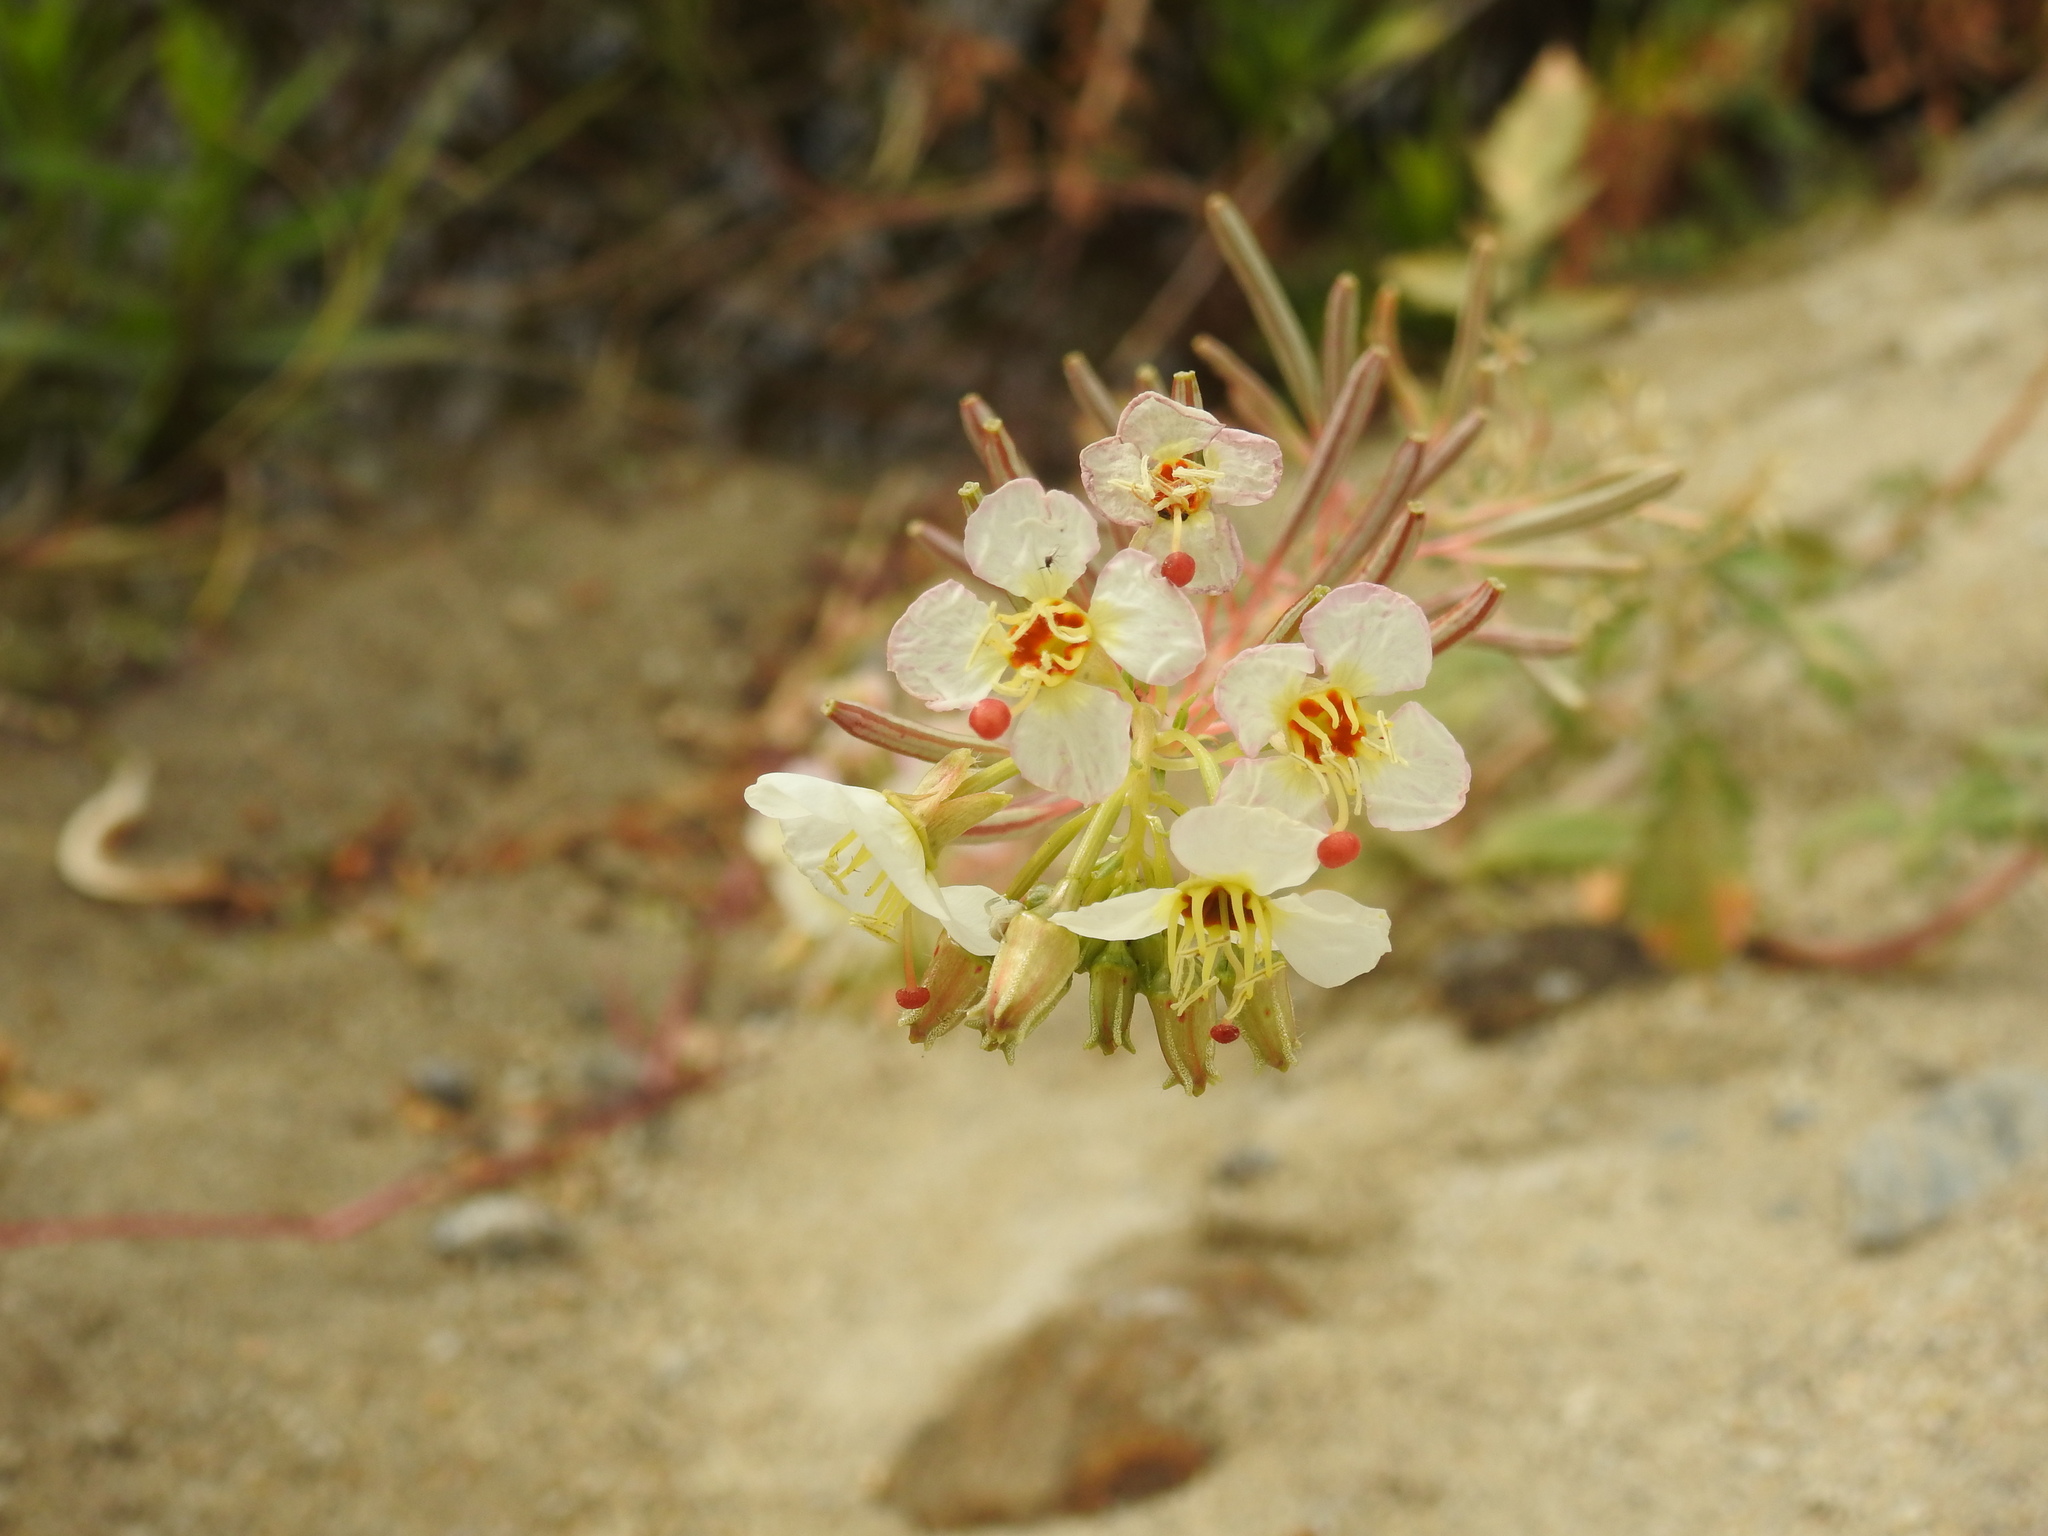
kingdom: Plantae
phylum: Tracheophyta
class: Magnoliopsida
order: Myrtales
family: Onagraceae
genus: Chylismia
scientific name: Chylismia claviformis
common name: Browneyes
